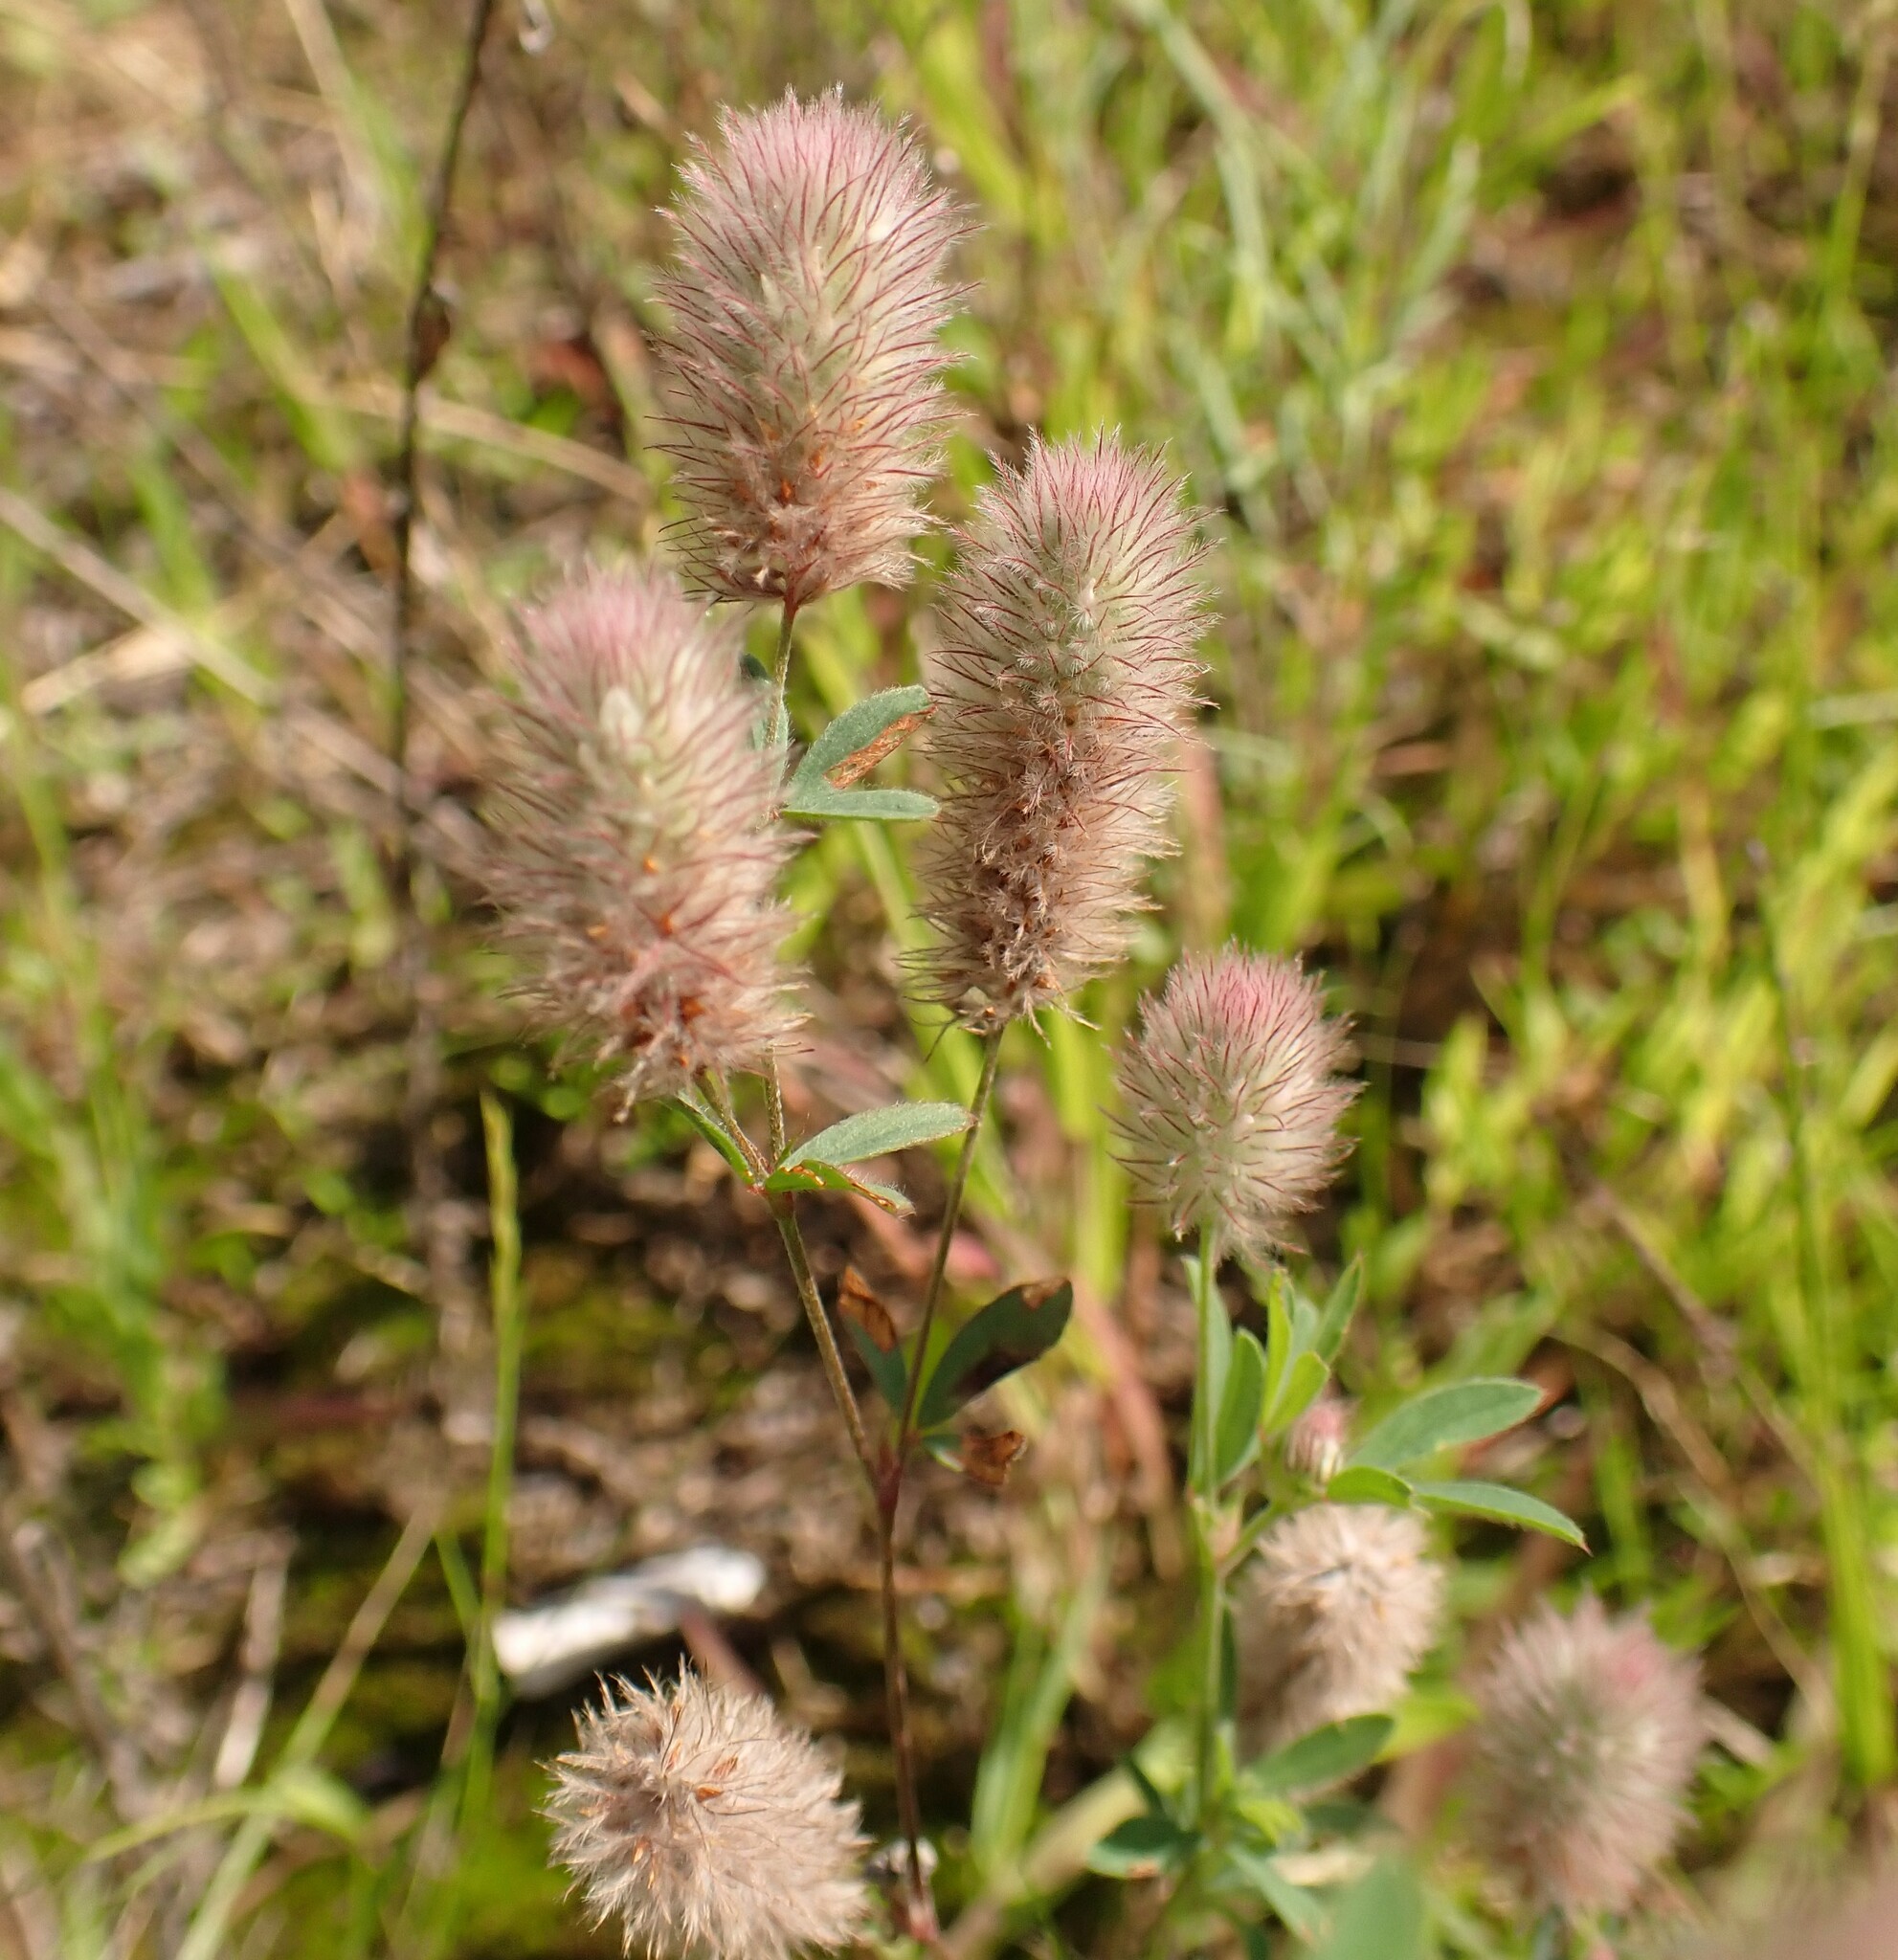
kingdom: Plantae
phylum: Tracheophyta
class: Magnoliopsida
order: Fabales
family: Fabaceae
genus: Trifolium
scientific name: Trifolium arvense
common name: Hare's-foot clover
